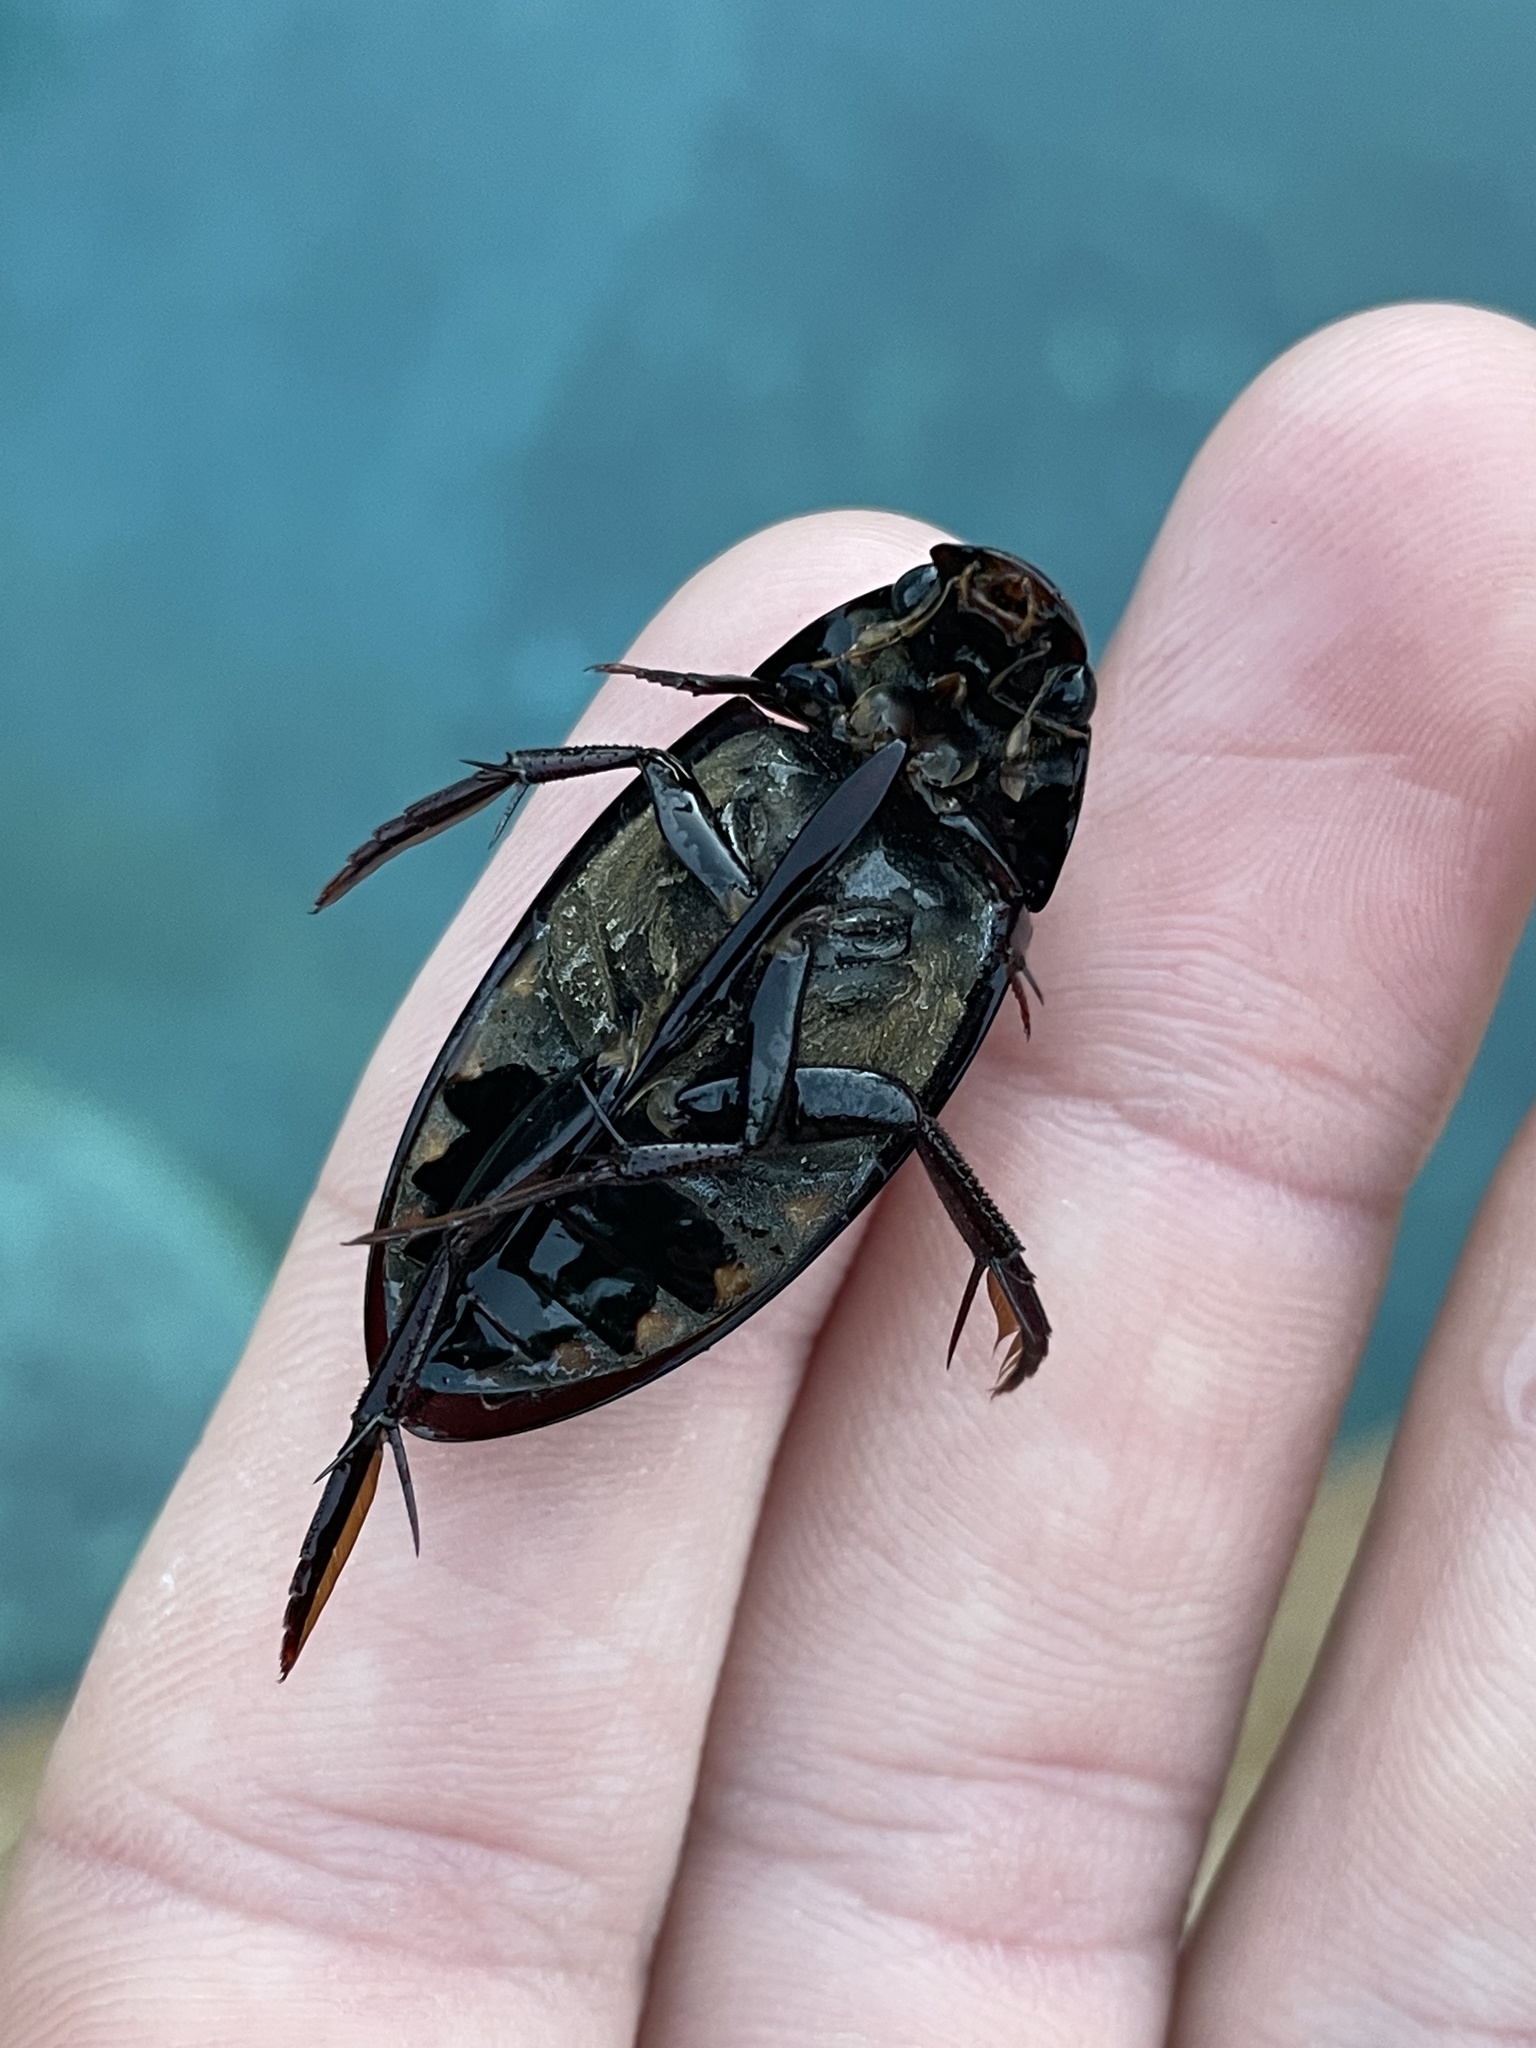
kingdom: Animalia
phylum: Arthropoda
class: Insecta
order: Coleoptera
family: Hydrophilidae
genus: Hydrophilus
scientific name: Hydrophilus triangularis
